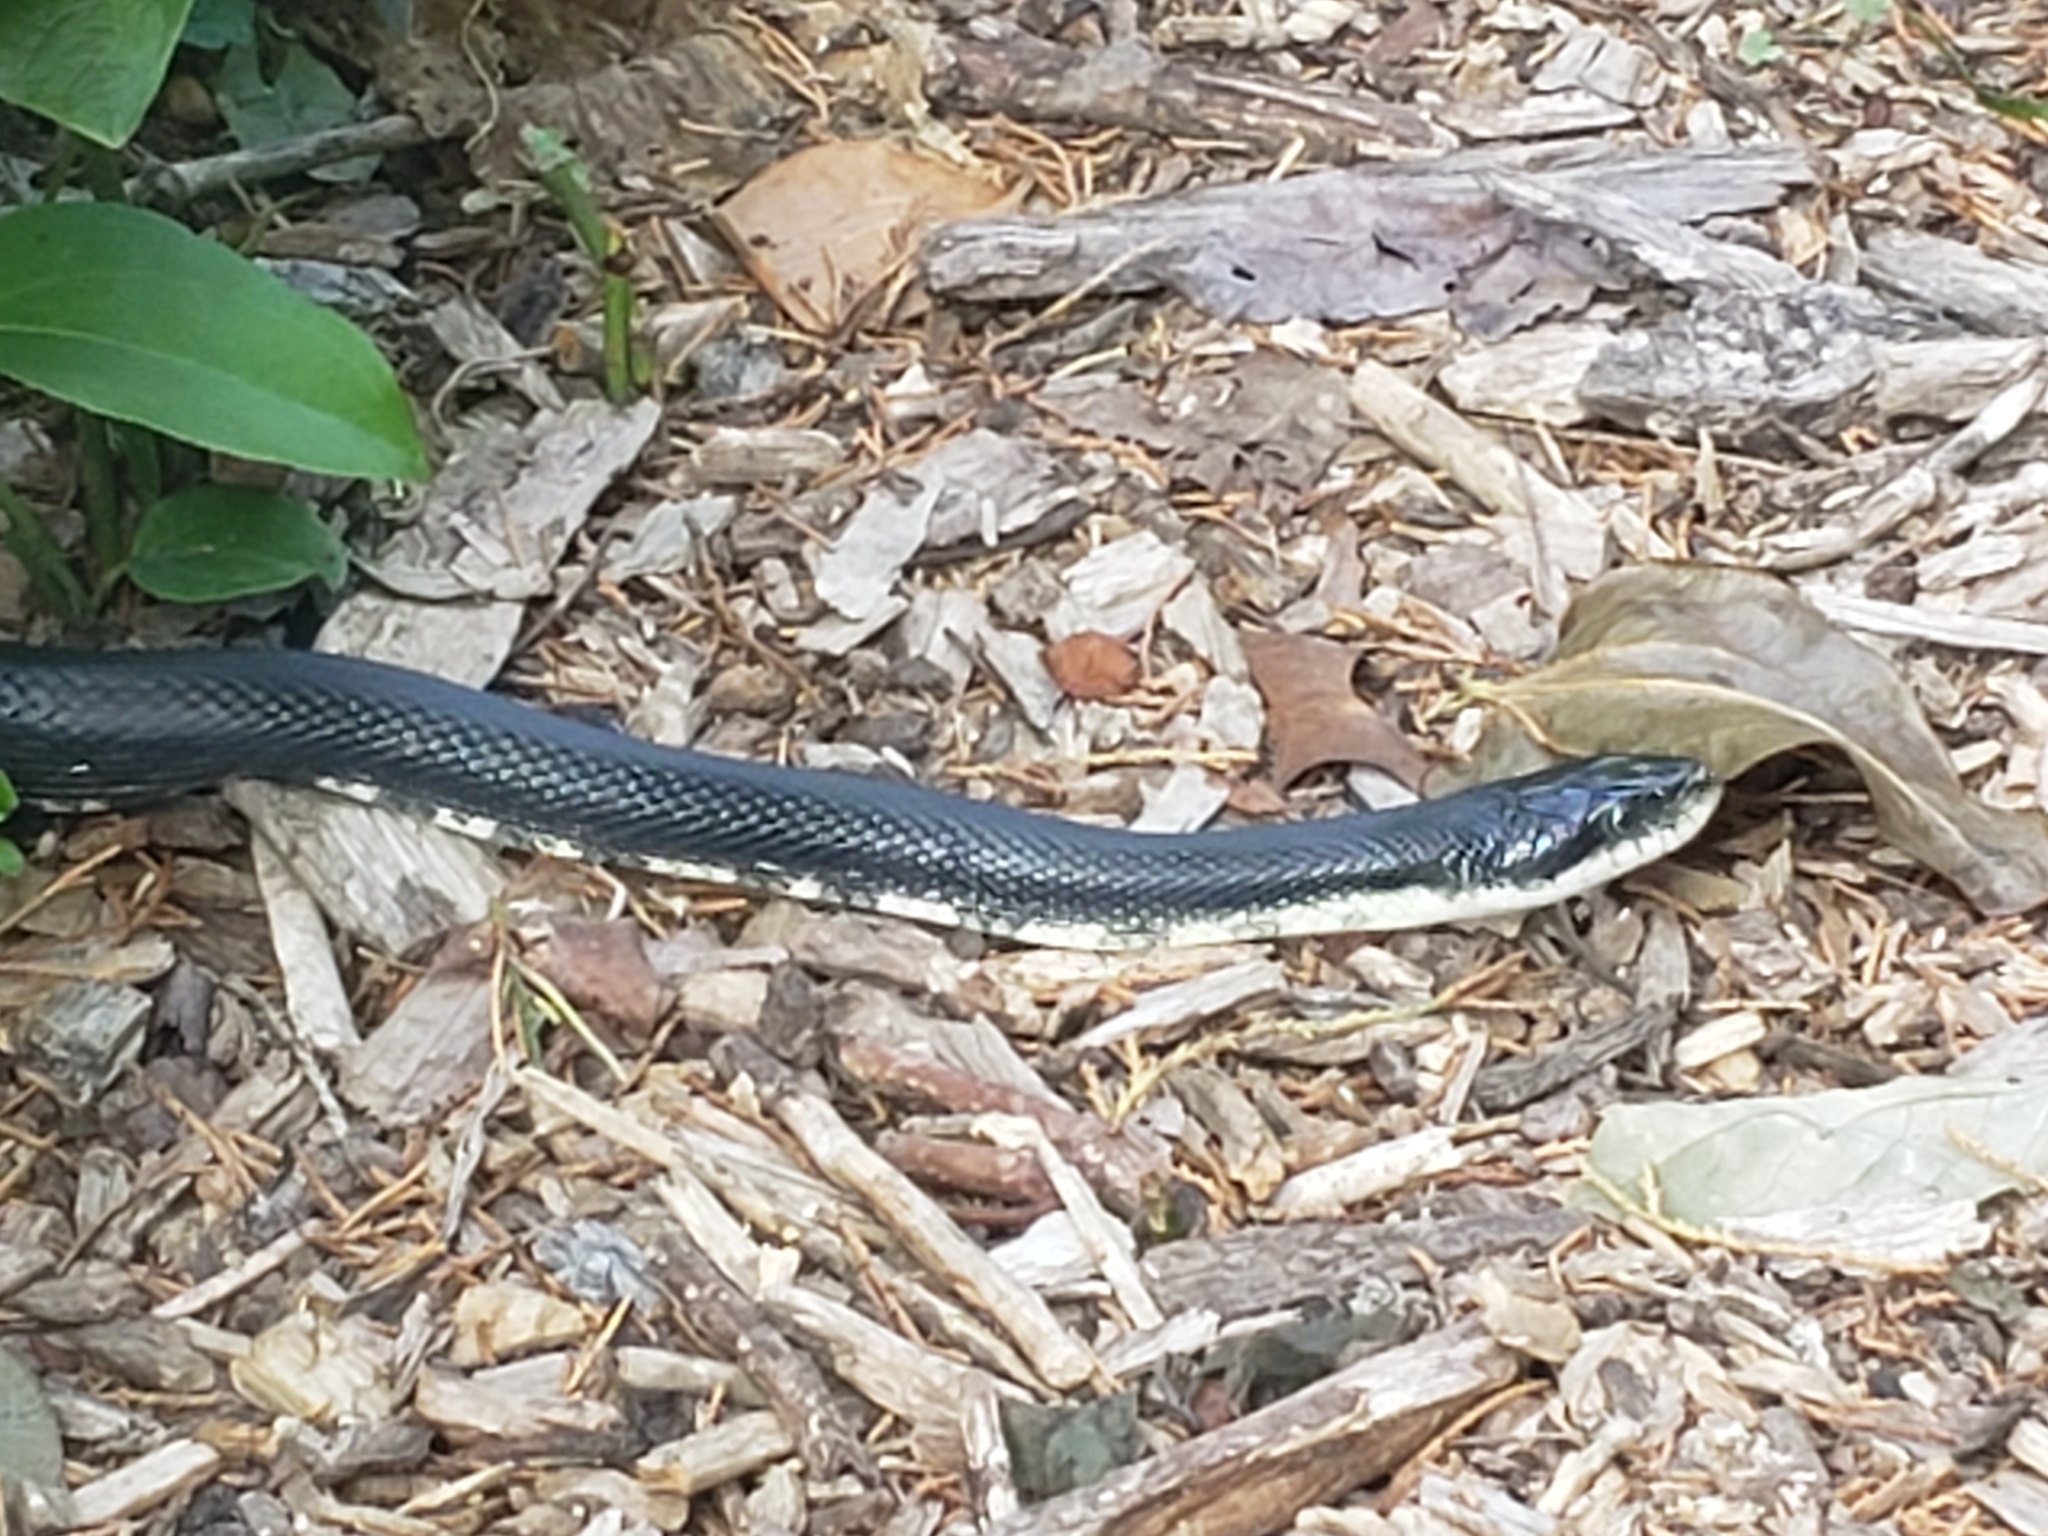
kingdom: Animalia
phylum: Chordata
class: Squamata
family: Colubridae
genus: Pantherophis
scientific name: Pantherophis
